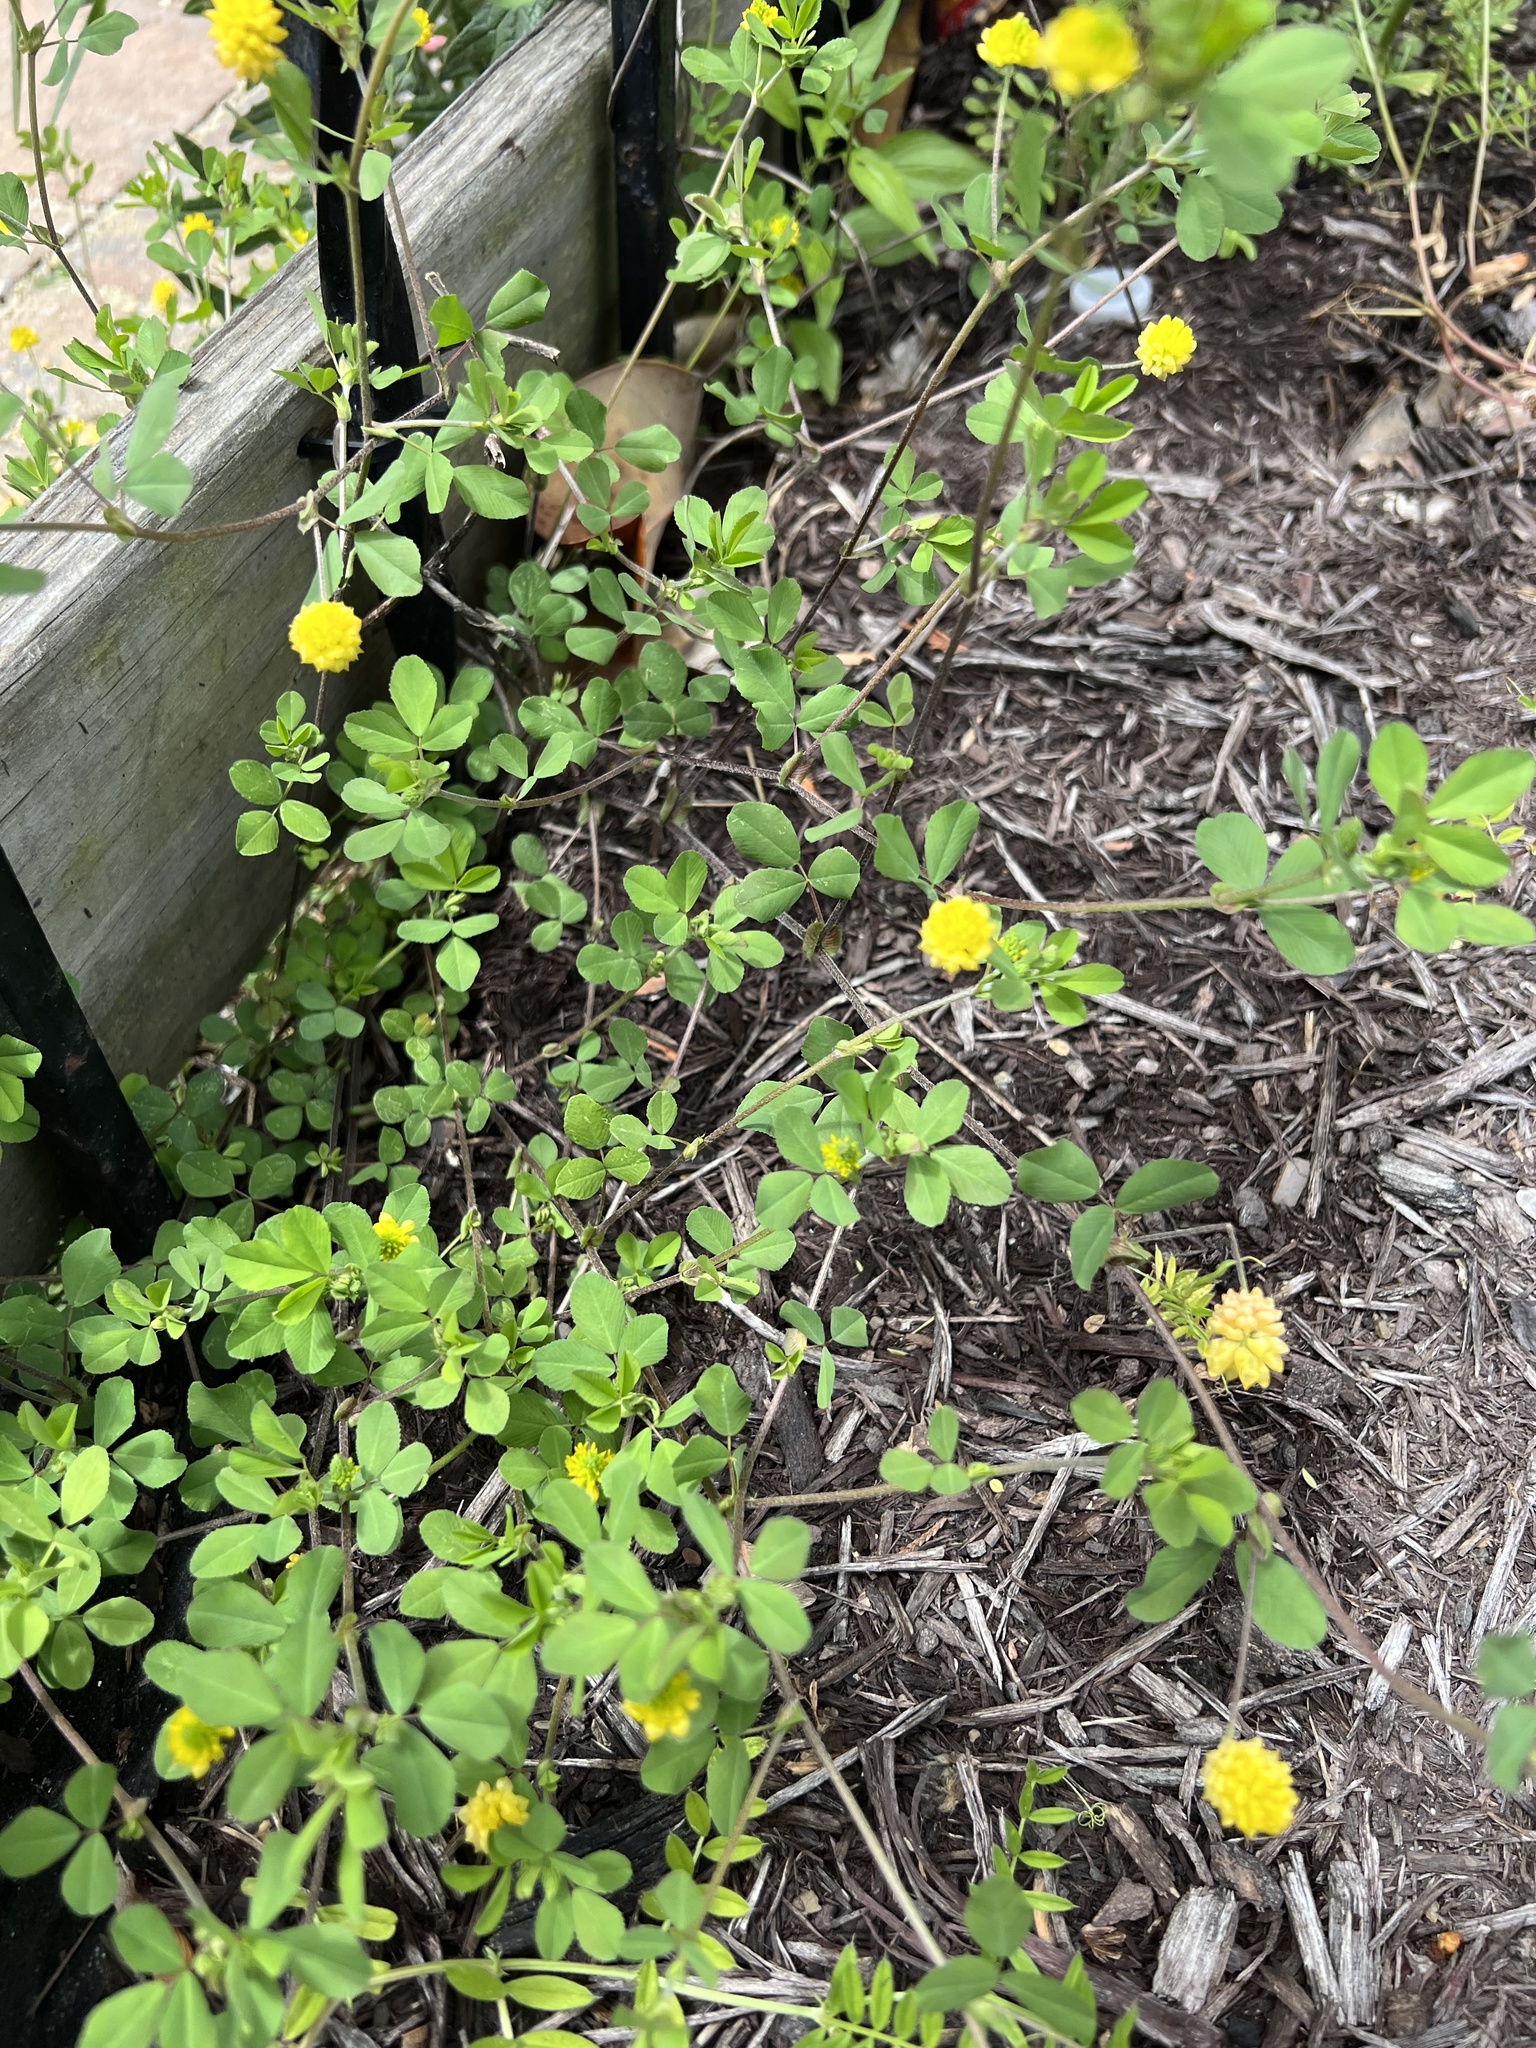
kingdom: Plantae
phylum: Tracheophyta
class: Magnoliopsida
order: Fabales
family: Fabaceae
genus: Trifolium
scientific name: Trifolium campestre
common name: Field clover
